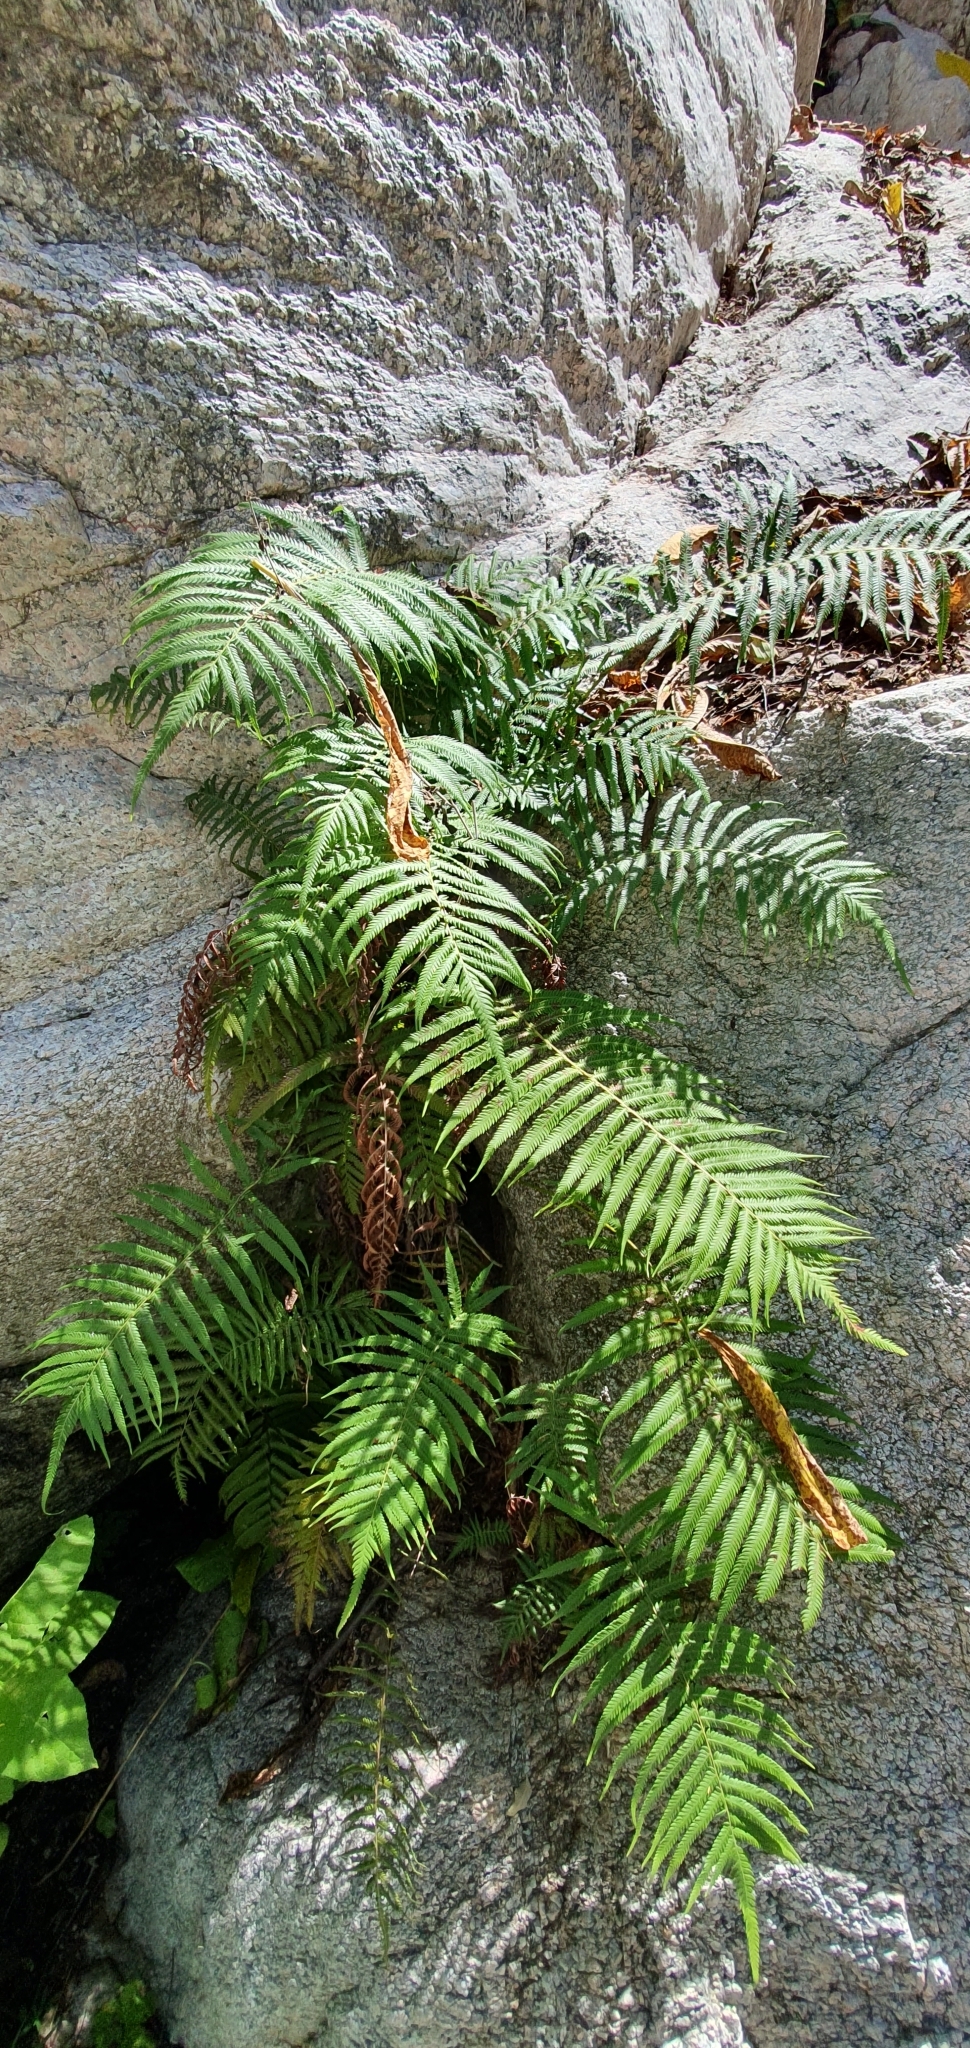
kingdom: Plantae
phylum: Tracheophyta
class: Polypodiopsida
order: Polypodiales
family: Thelypteridaceae
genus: Pelazoneuron
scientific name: Pelazoneuron puberulum
